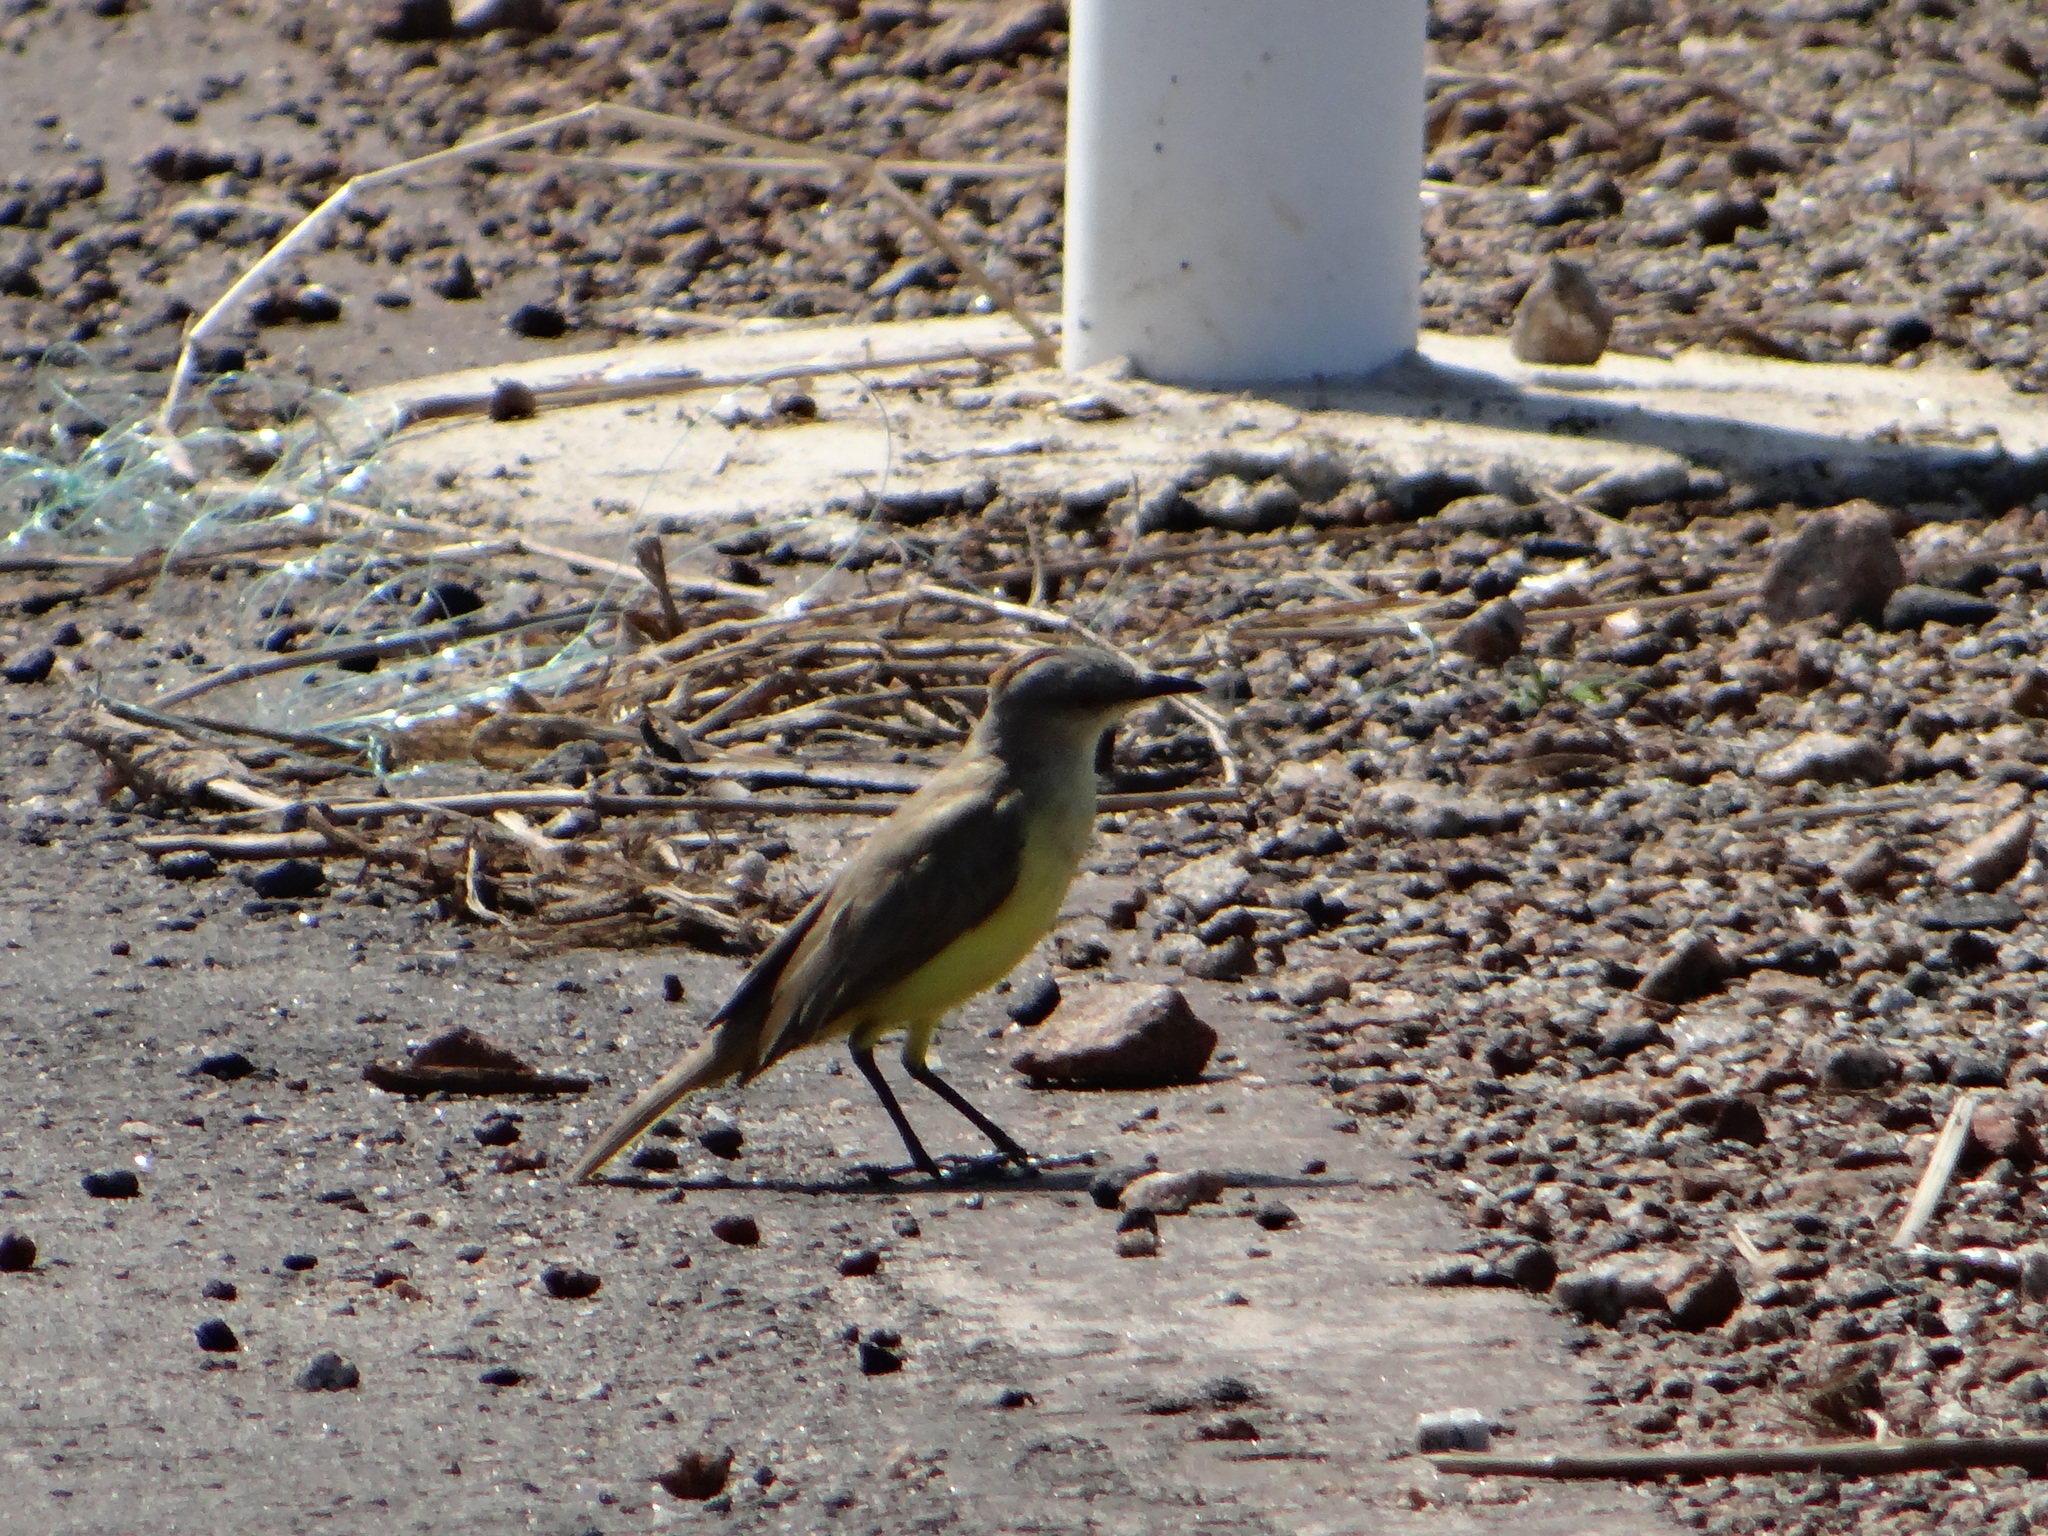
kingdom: Animalia
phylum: Chordata
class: Aves
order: Passeriformes
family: Tyrannidae
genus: Machetornis
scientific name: Machetornis rixosa
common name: Cattle tyrant
